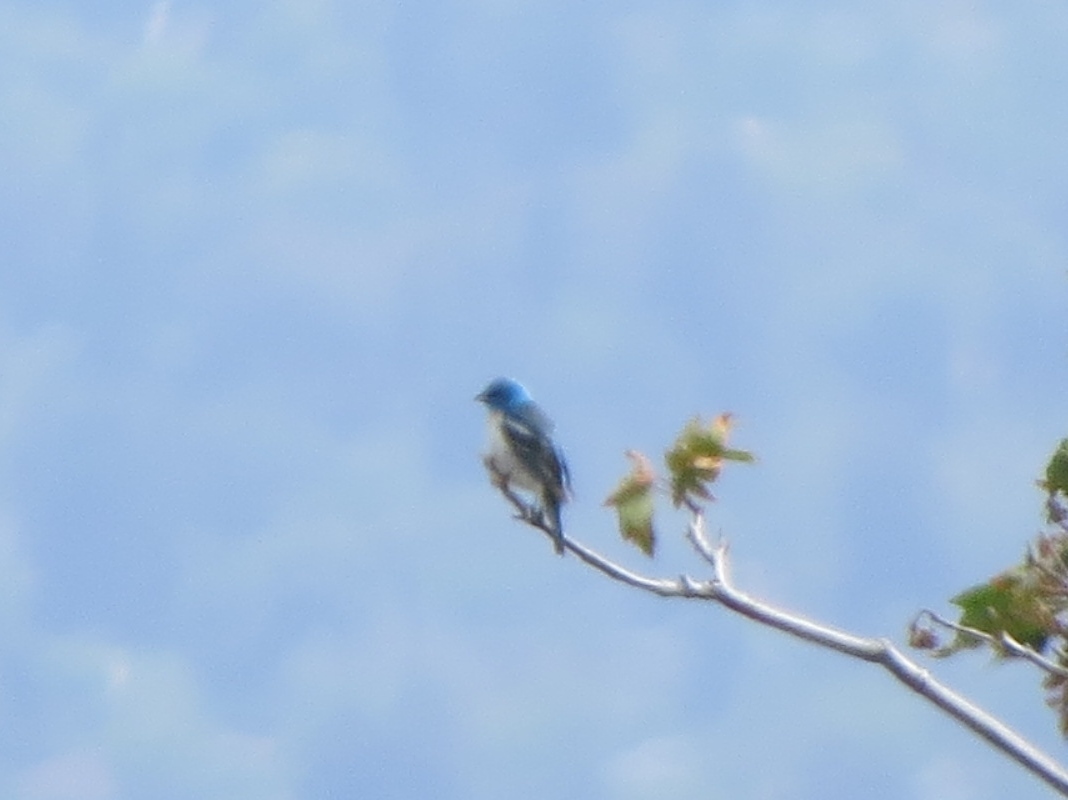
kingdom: Animalia
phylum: Chordata
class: Aves
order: Passeriformes
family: Cardinalidae
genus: Passerina
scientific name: Passerina amoena
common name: Lazuli bunting
